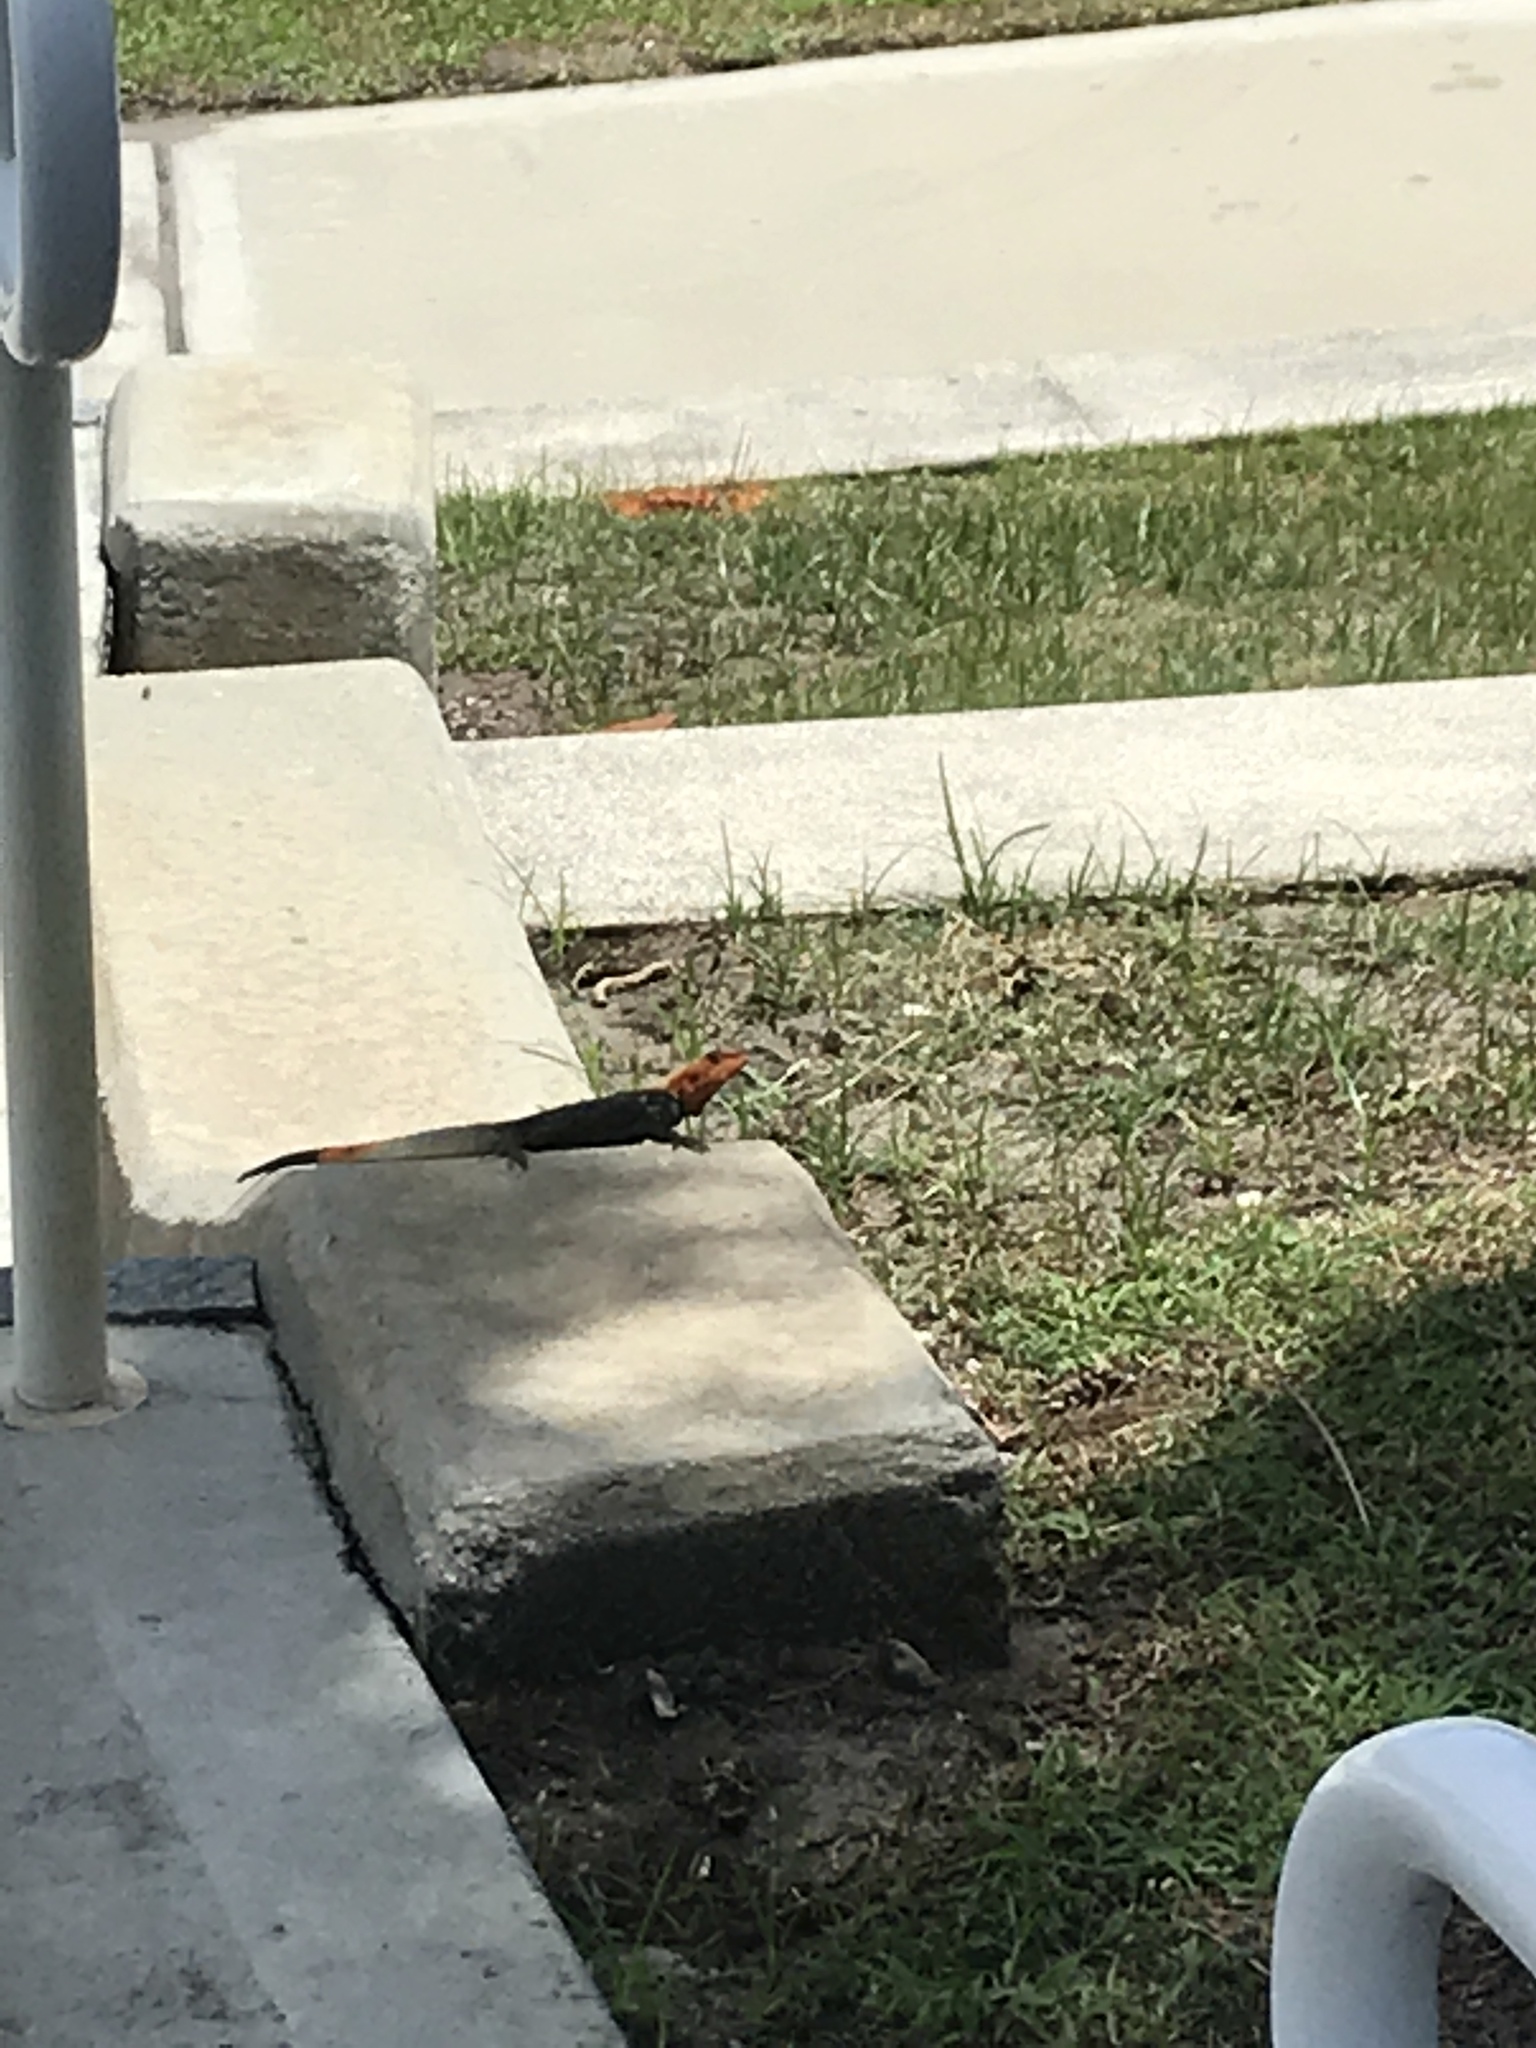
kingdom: Animalia
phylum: Chordata
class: Squamata
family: Agamidae
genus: Agama
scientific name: Agama picticauda
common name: Red-headed agama
